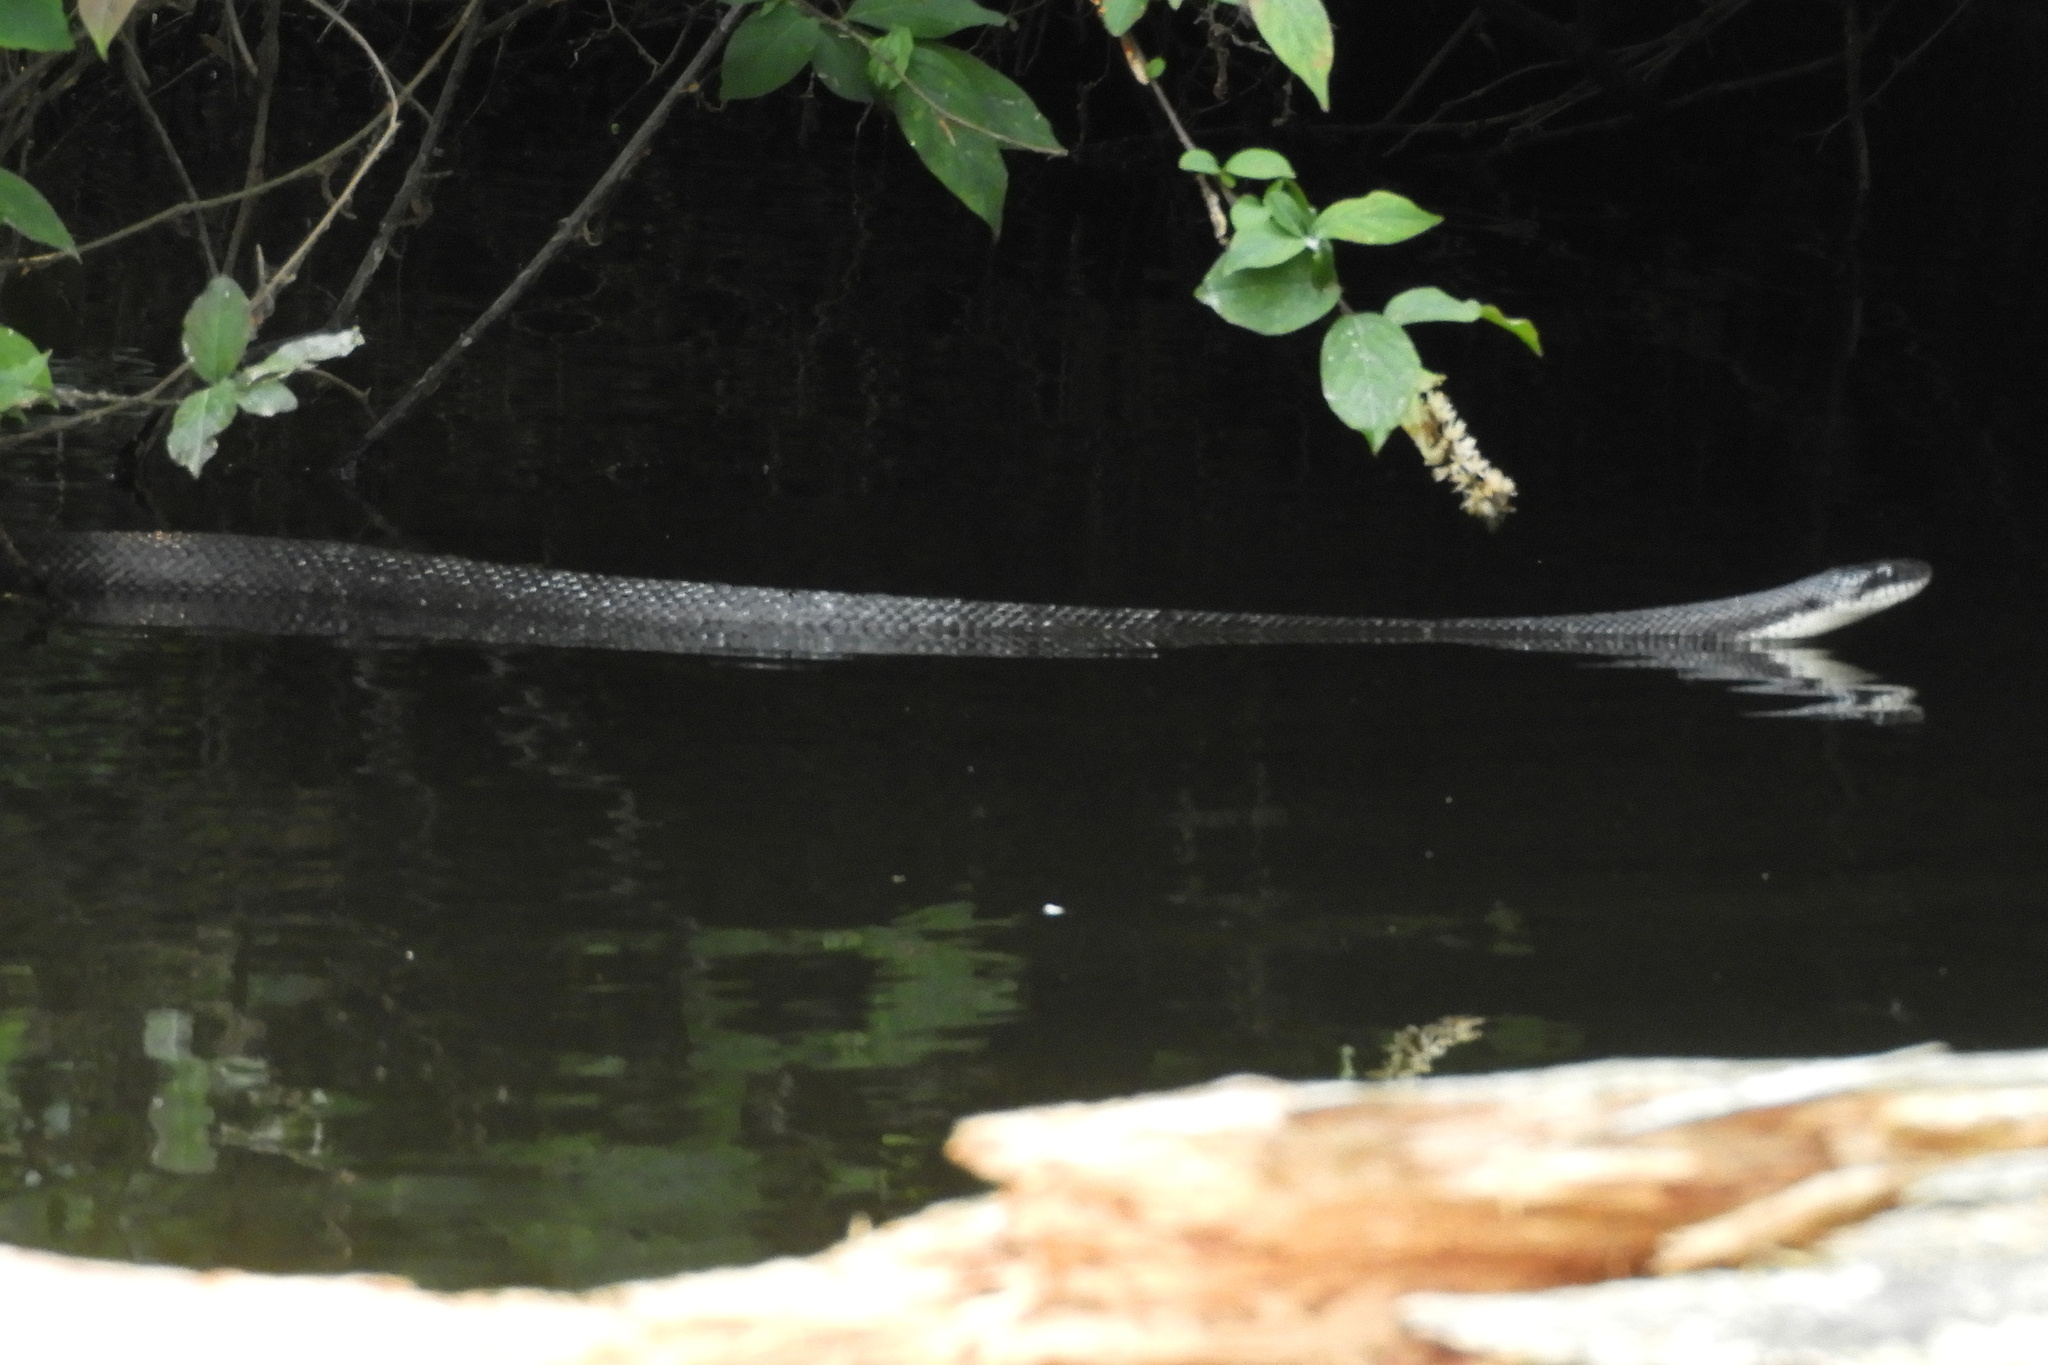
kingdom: Animalia
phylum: Chordata
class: Squamata
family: Colubridae
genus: Pantherophis
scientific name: Pantherophis alleghaniensis
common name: Eastern rat snake
